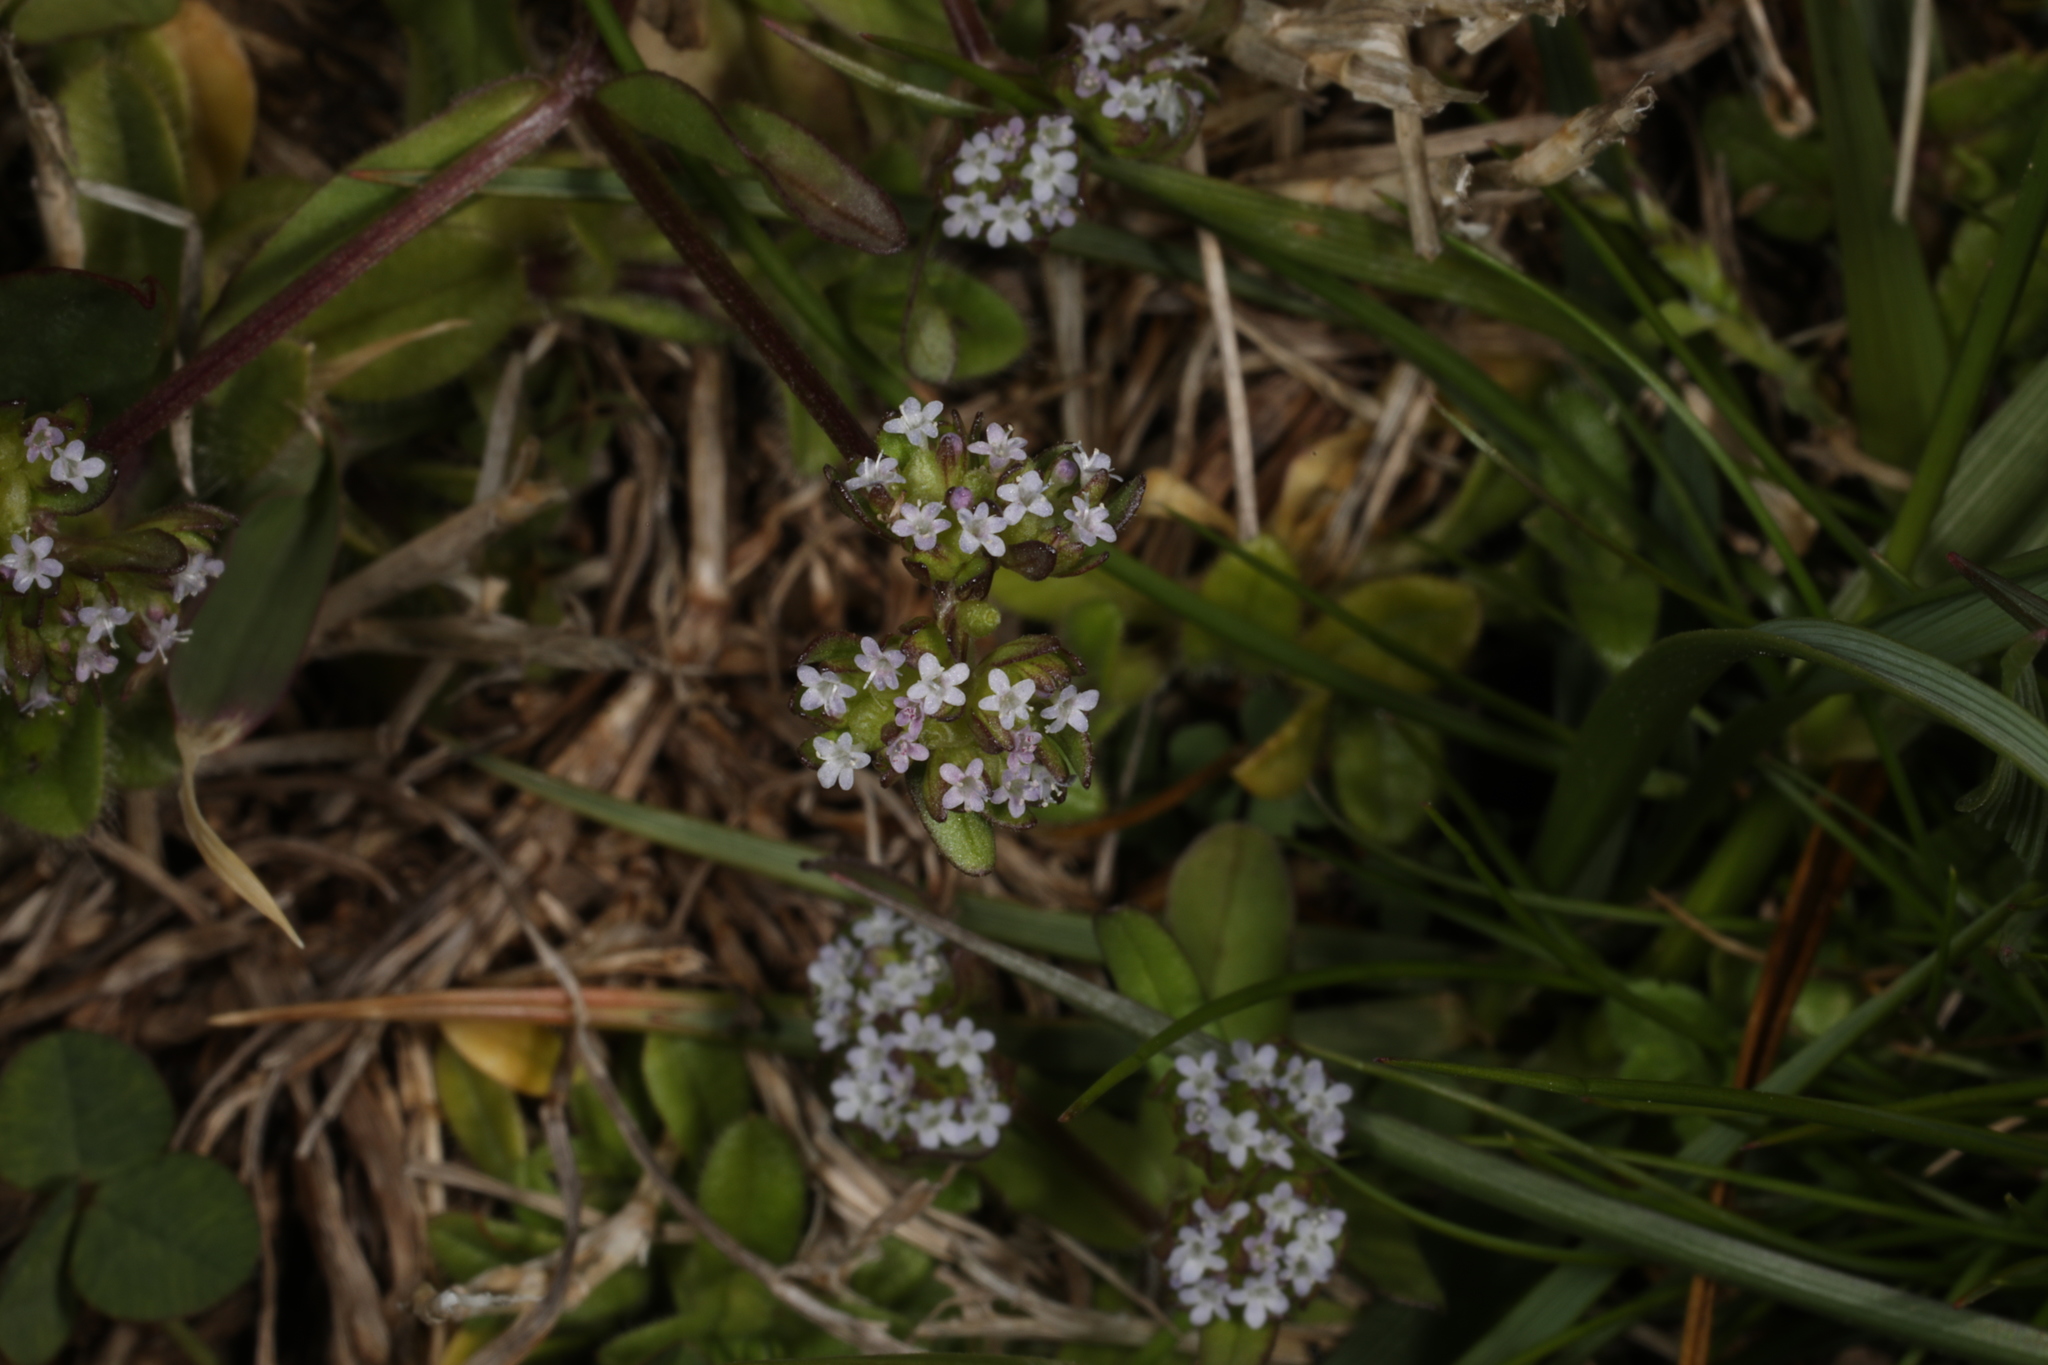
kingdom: Plantae
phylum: Tracheophyta
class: Magnoliopsida
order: Dipsacales
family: Caprifoliaceae
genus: Valerianella
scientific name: Valerianella locusta
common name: Common cornsalad
